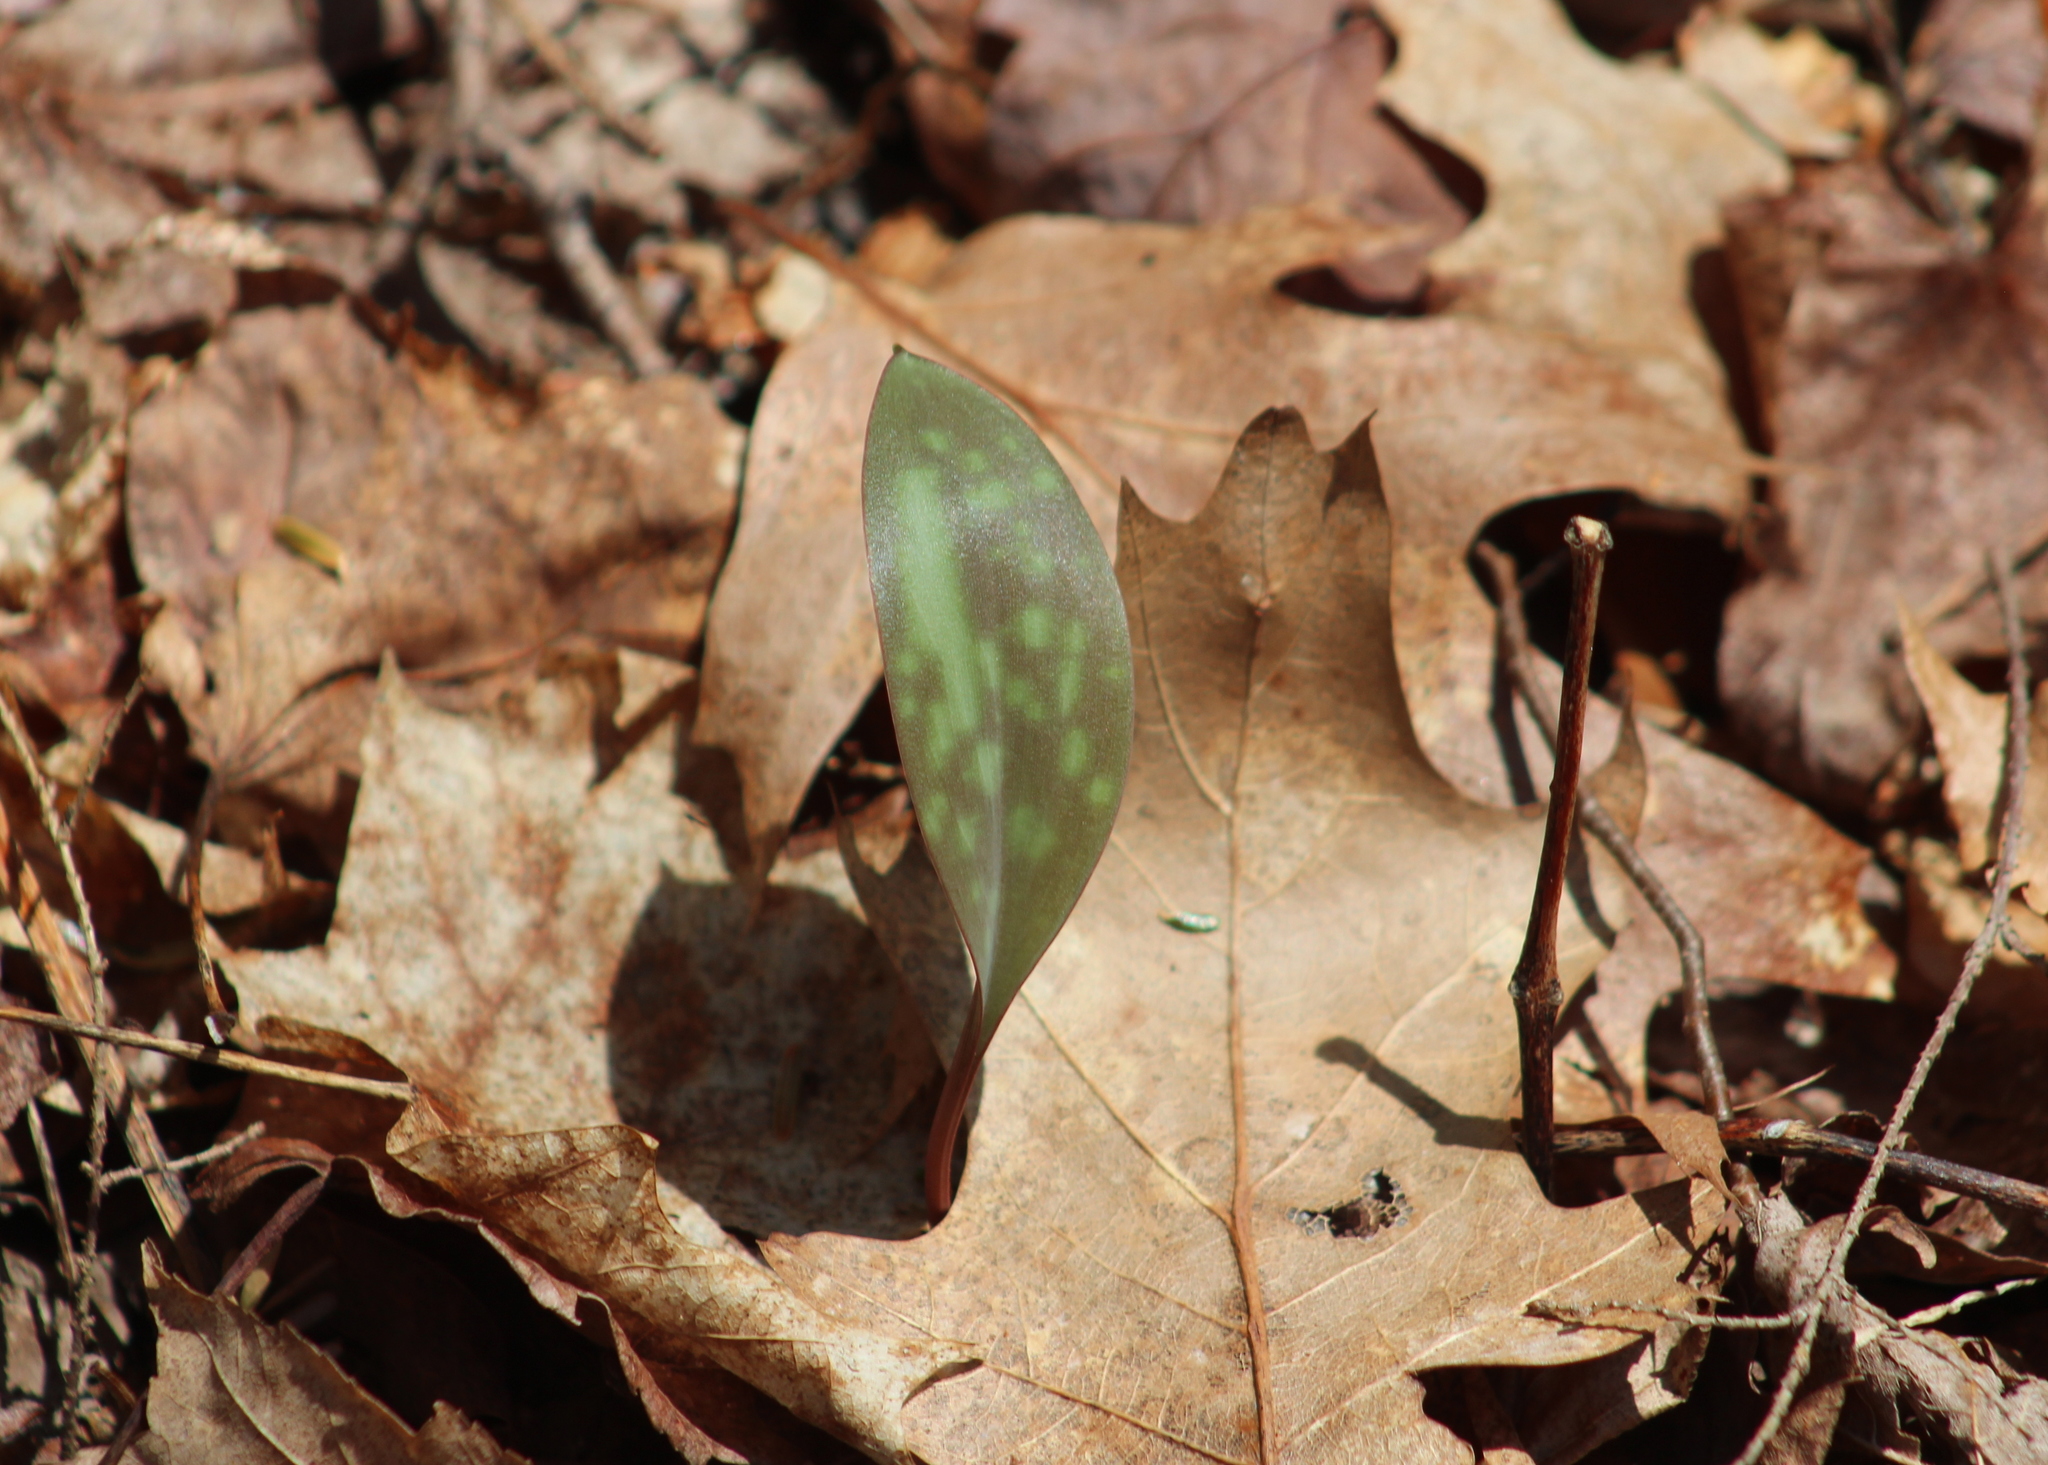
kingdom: Plantae
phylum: Tracheophyta
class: Liliopsida
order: Liliales
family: Liliaceae
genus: Erythronium
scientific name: Erythronium americanum
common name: Yellow adder's-tongue
